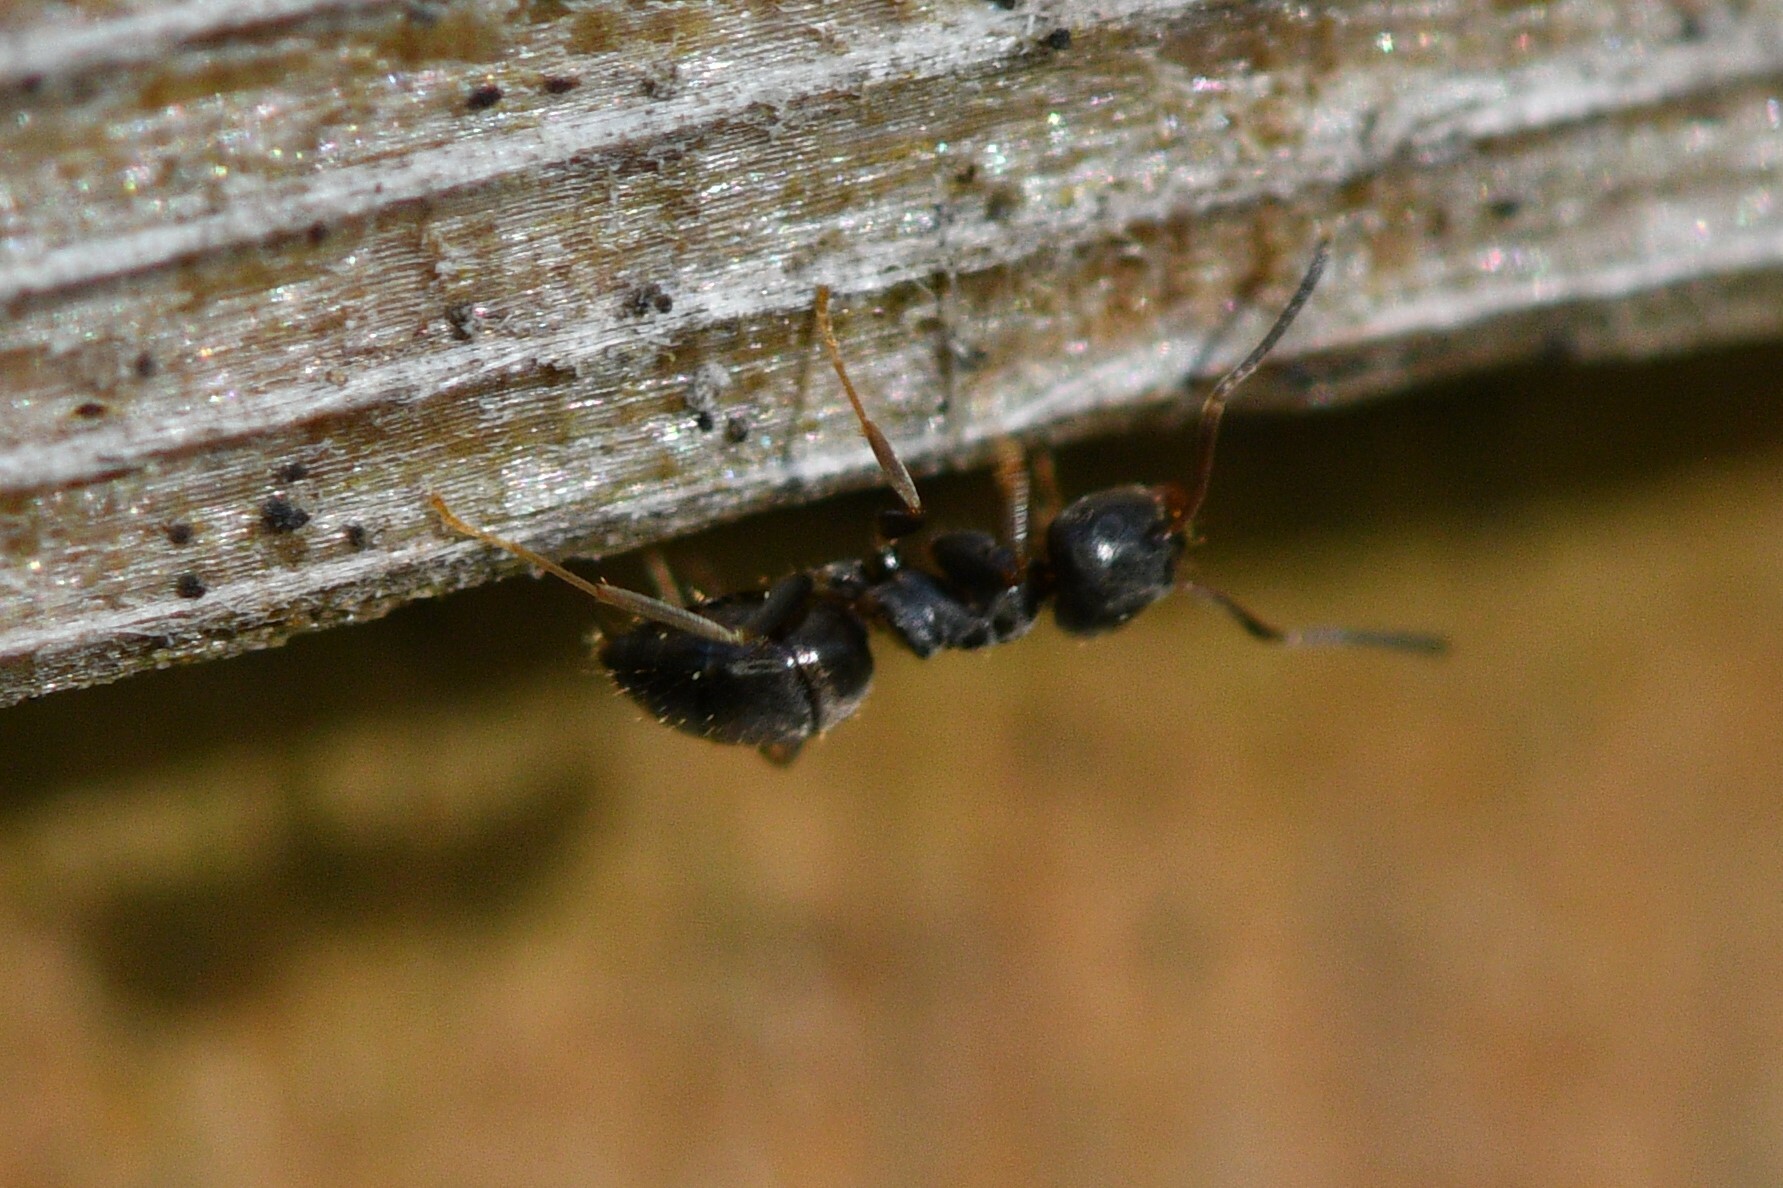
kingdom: Animalia
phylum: Arthropoda
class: Insecta
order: Hymenoptera
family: Formicidae
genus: Lasius
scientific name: Lasius americanus
